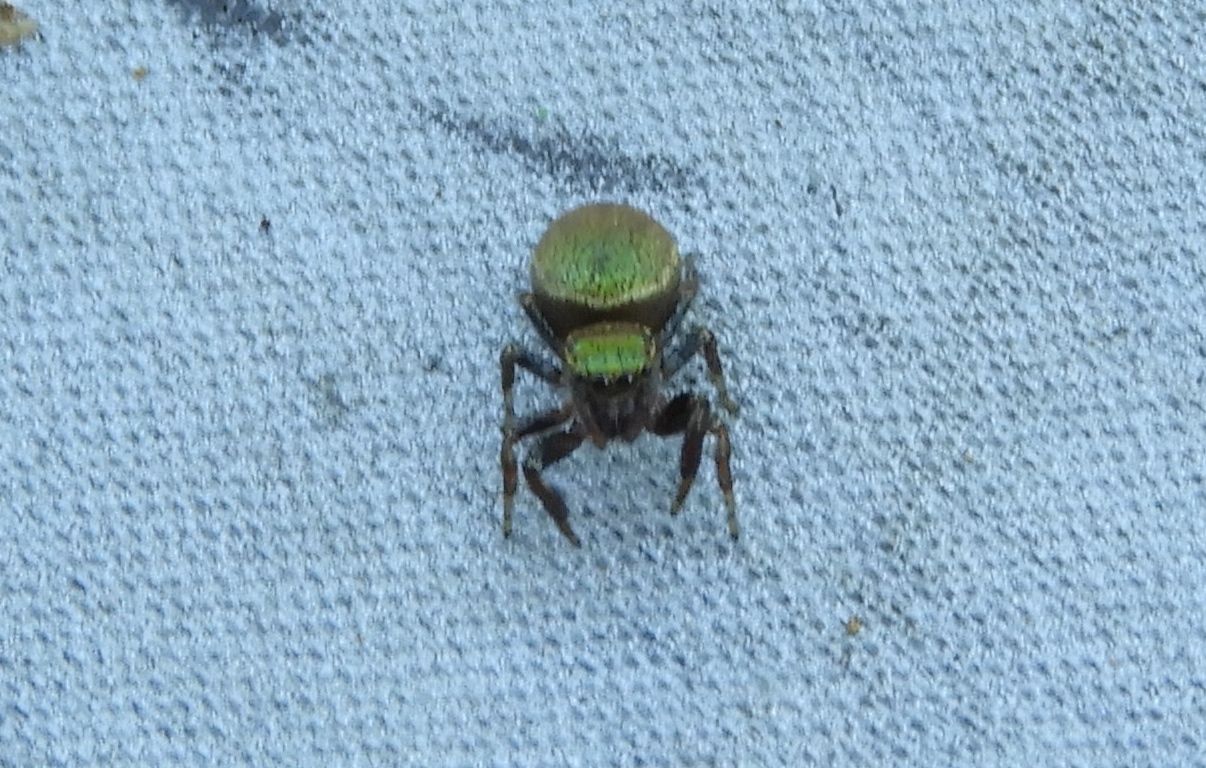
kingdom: Animalia
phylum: Arthropoda
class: Arachnida
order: Araneae
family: Salticidae
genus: Sassacus
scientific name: Sassacus papenhoei
